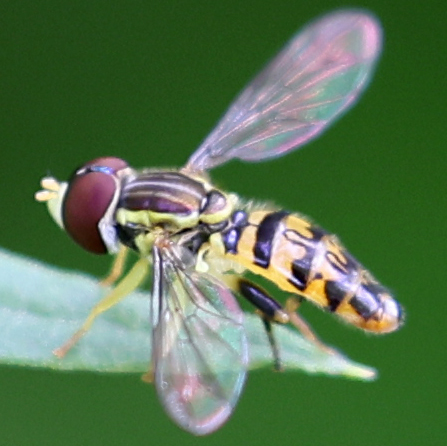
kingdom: Animalia
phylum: Arthropoda
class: Insecta
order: Diptera
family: Syrphidae
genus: Toxomerus
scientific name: Toxomerus geminatus
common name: Eastern calligrapher
